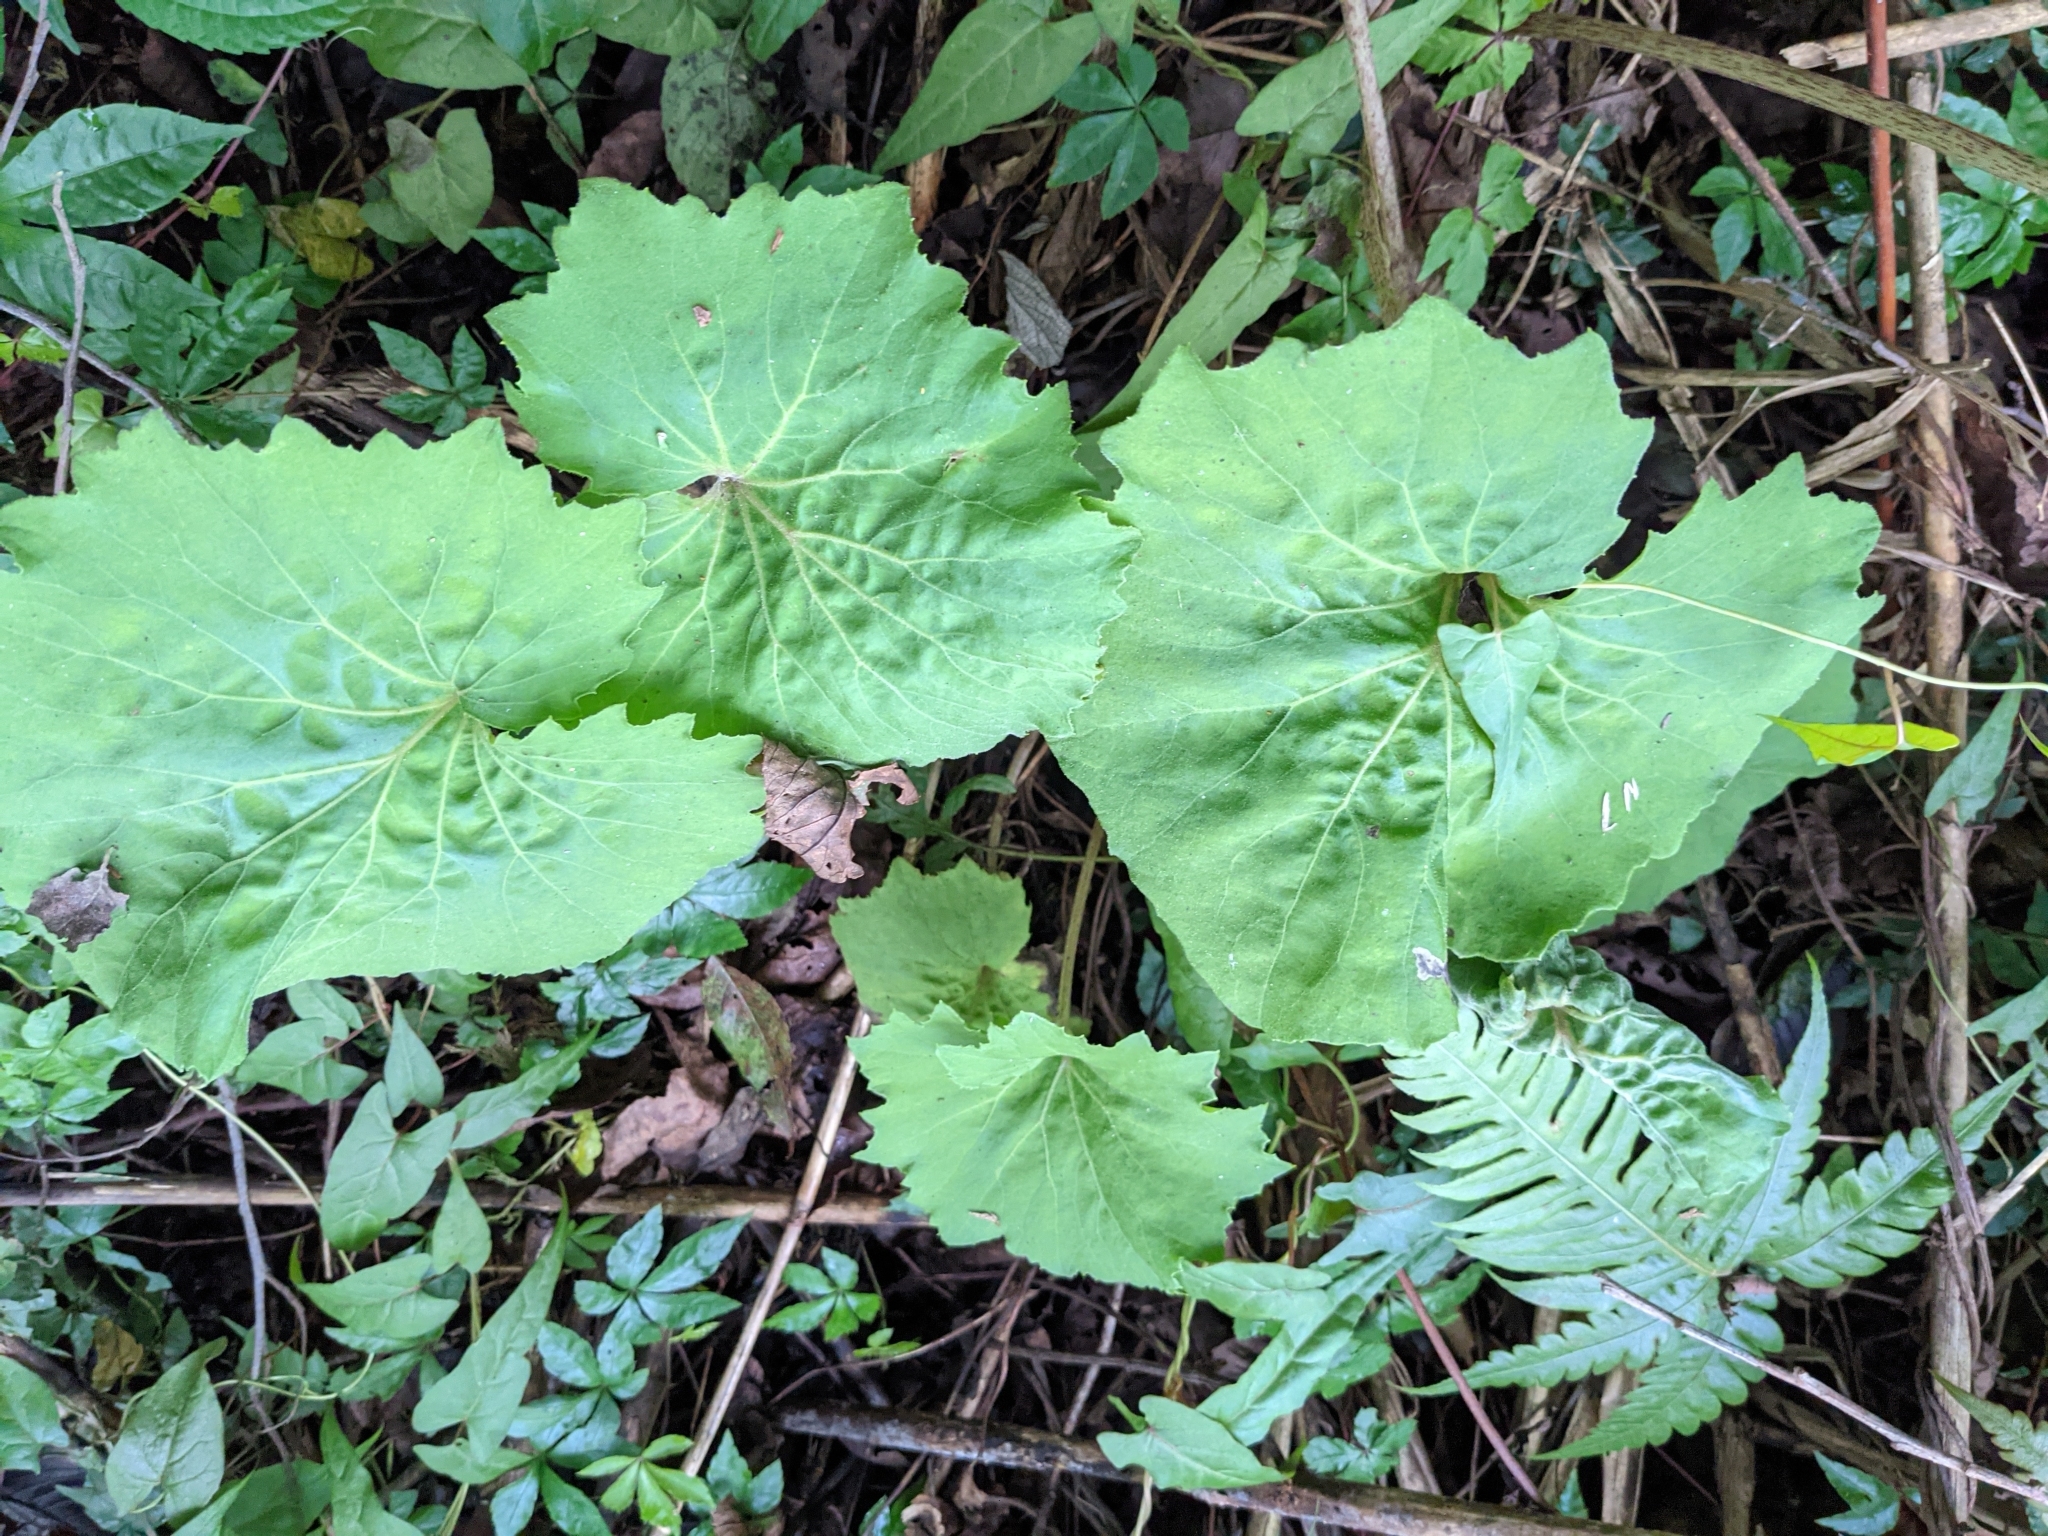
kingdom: Plantae
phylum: Tracheophyta
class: Magnoliopsida
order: Asterales
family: Asteraceae
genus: Petasites
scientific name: Petasites formosanus
